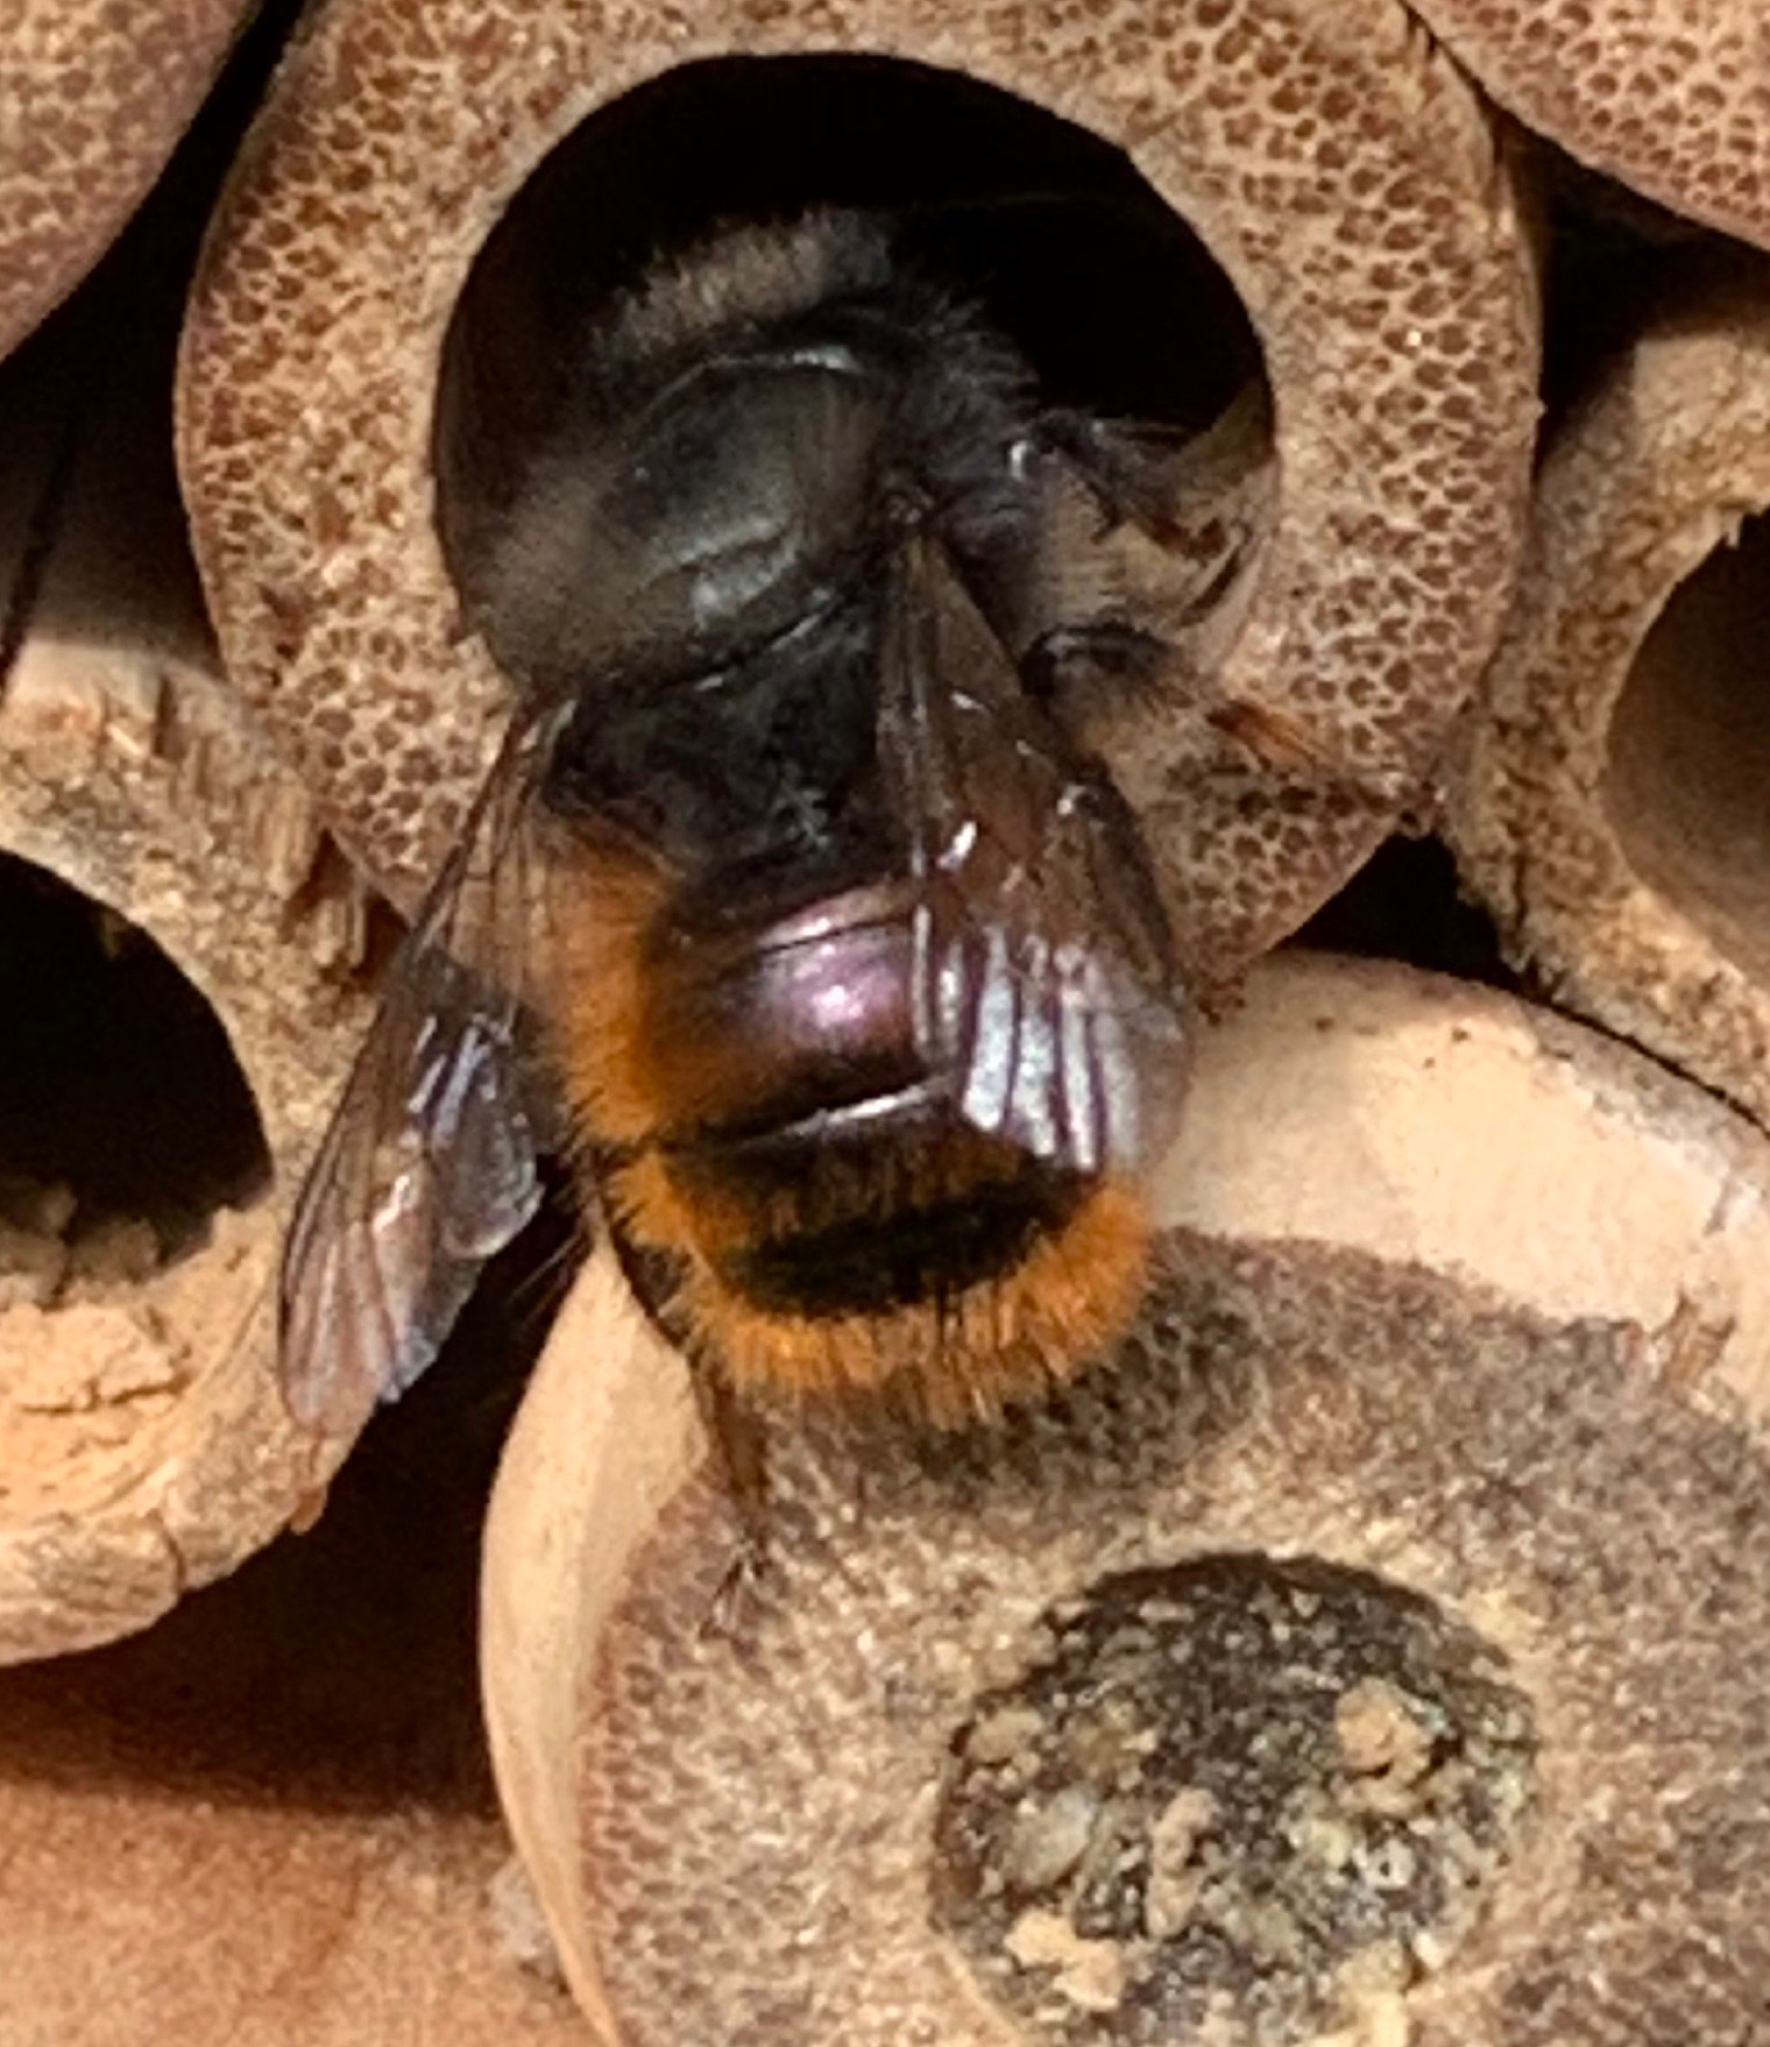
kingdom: Animalia
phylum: Arthropoda
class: Insecta
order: Hymenoptera
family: Megachilidae
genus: Osmia
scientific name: Osmia cornuta
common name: Mason bee
